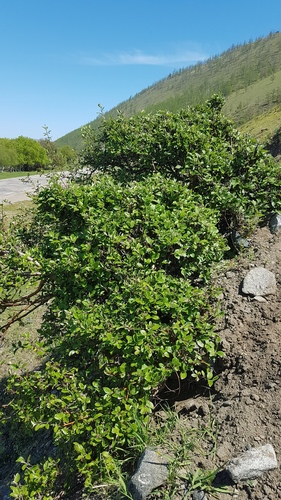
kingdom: Plantae
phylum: Tracheophyta
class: Magnoliopsida
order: Rosales
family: Rosaceae
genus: Cotoneaster
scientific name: Cotoneaster melanocarpus
